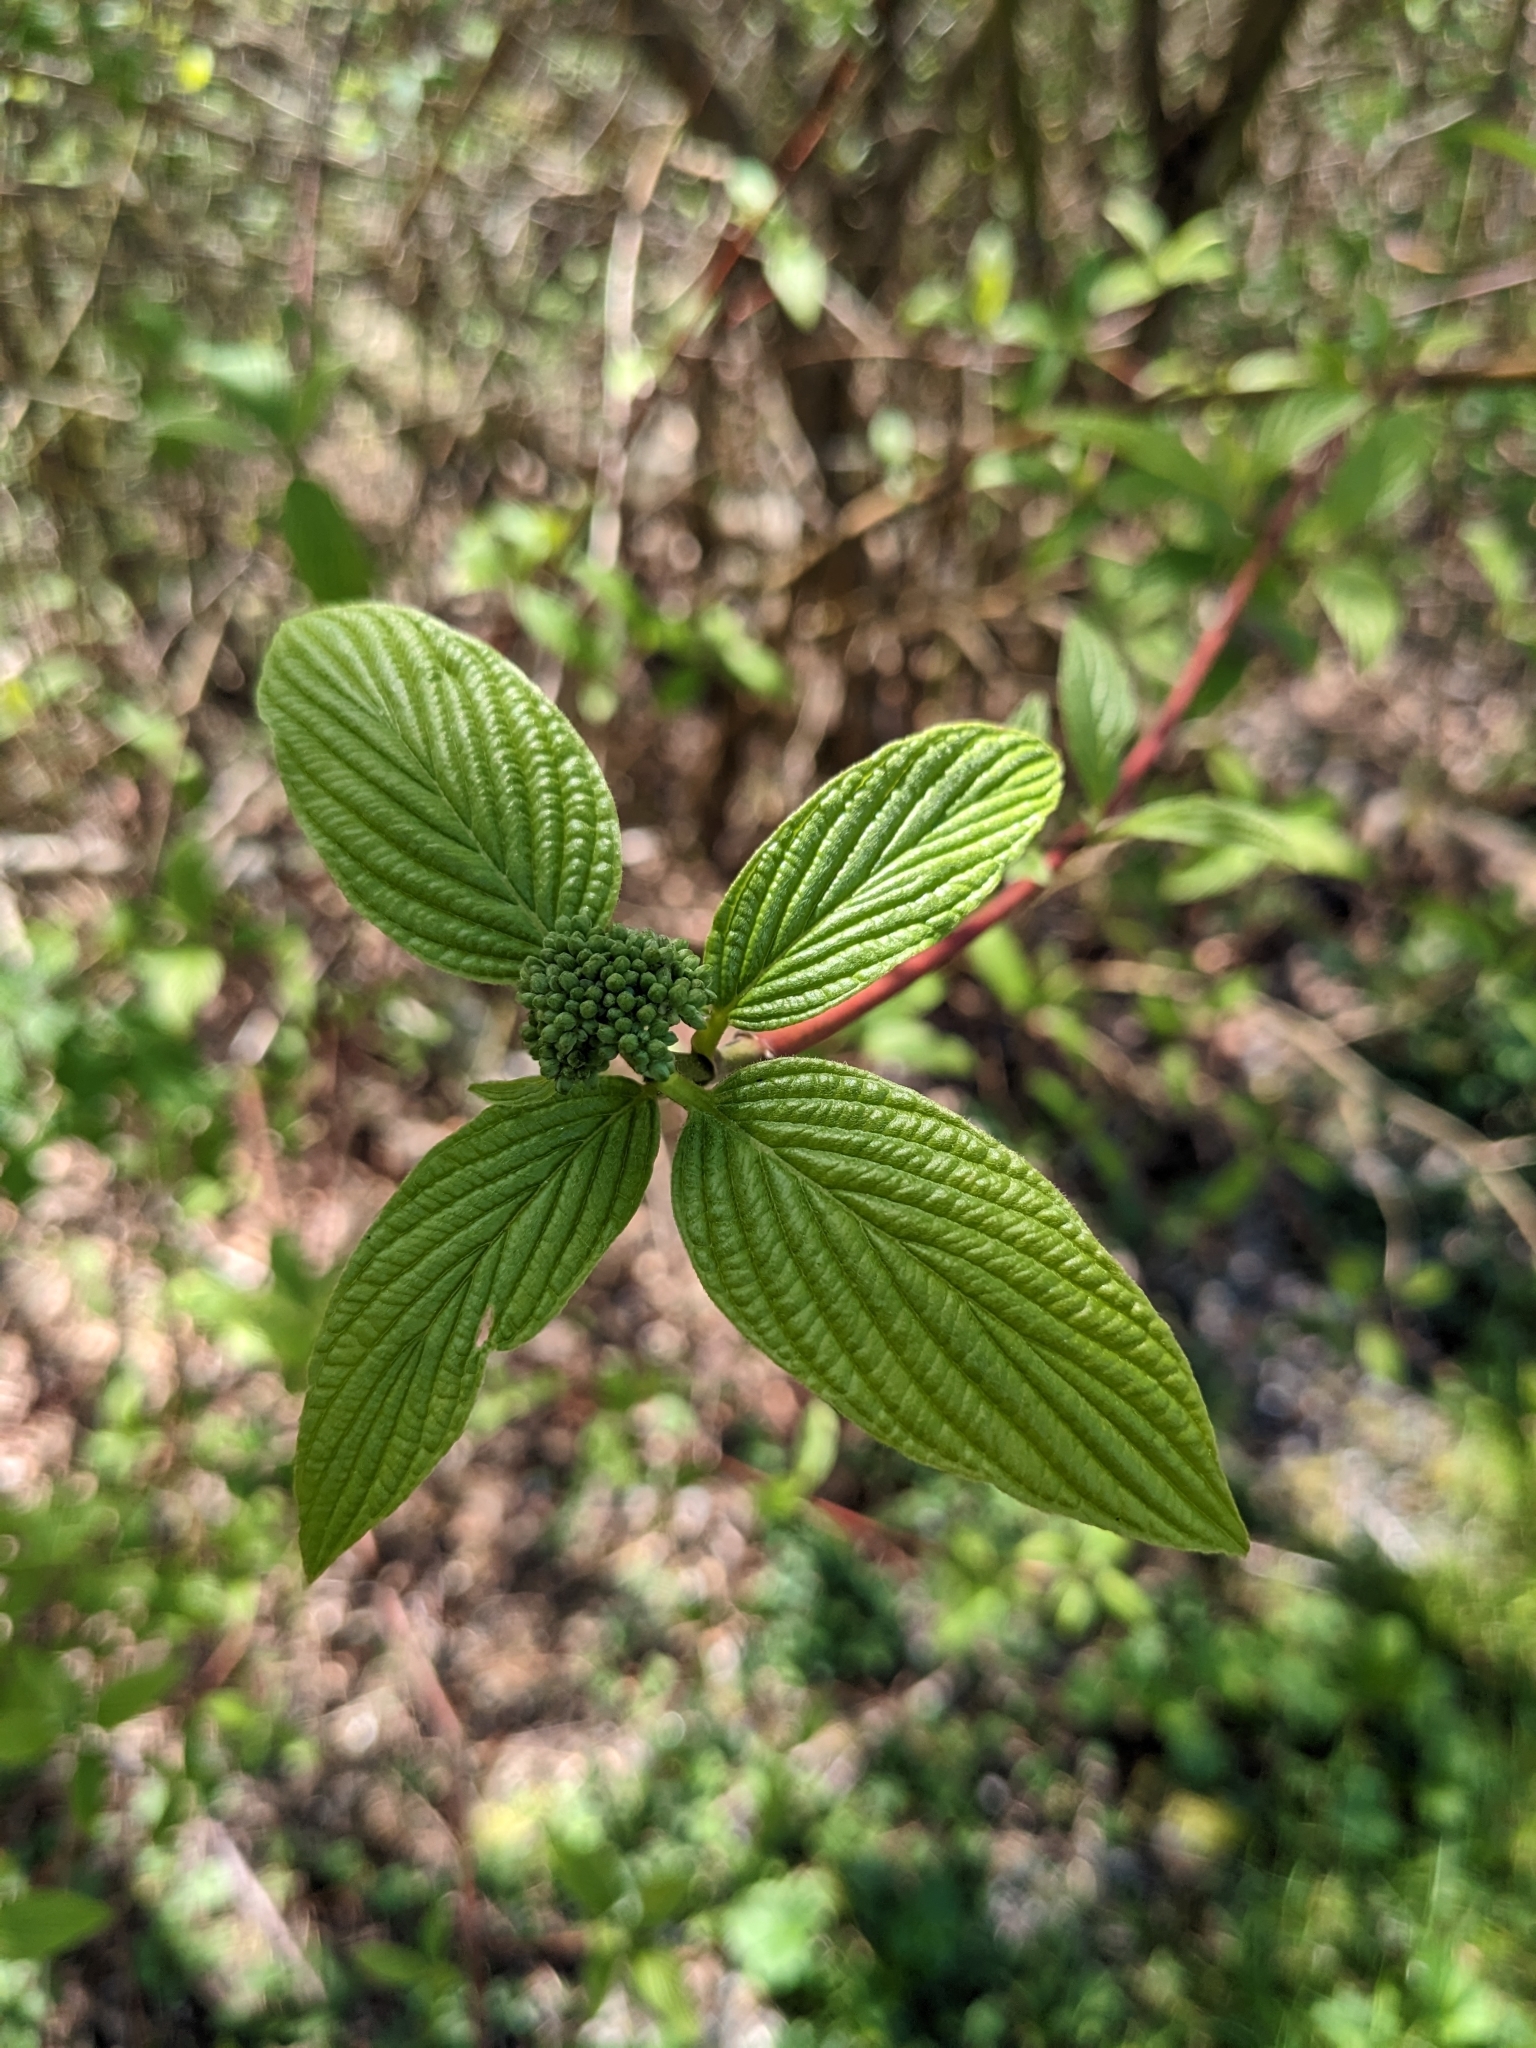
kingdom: Plantae
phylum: Tracheophyta
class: Magnoliopsida
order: Cornales
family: Cornaceae
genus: Cornus
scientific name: Cornus sericea
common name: Red-osier dogwood
